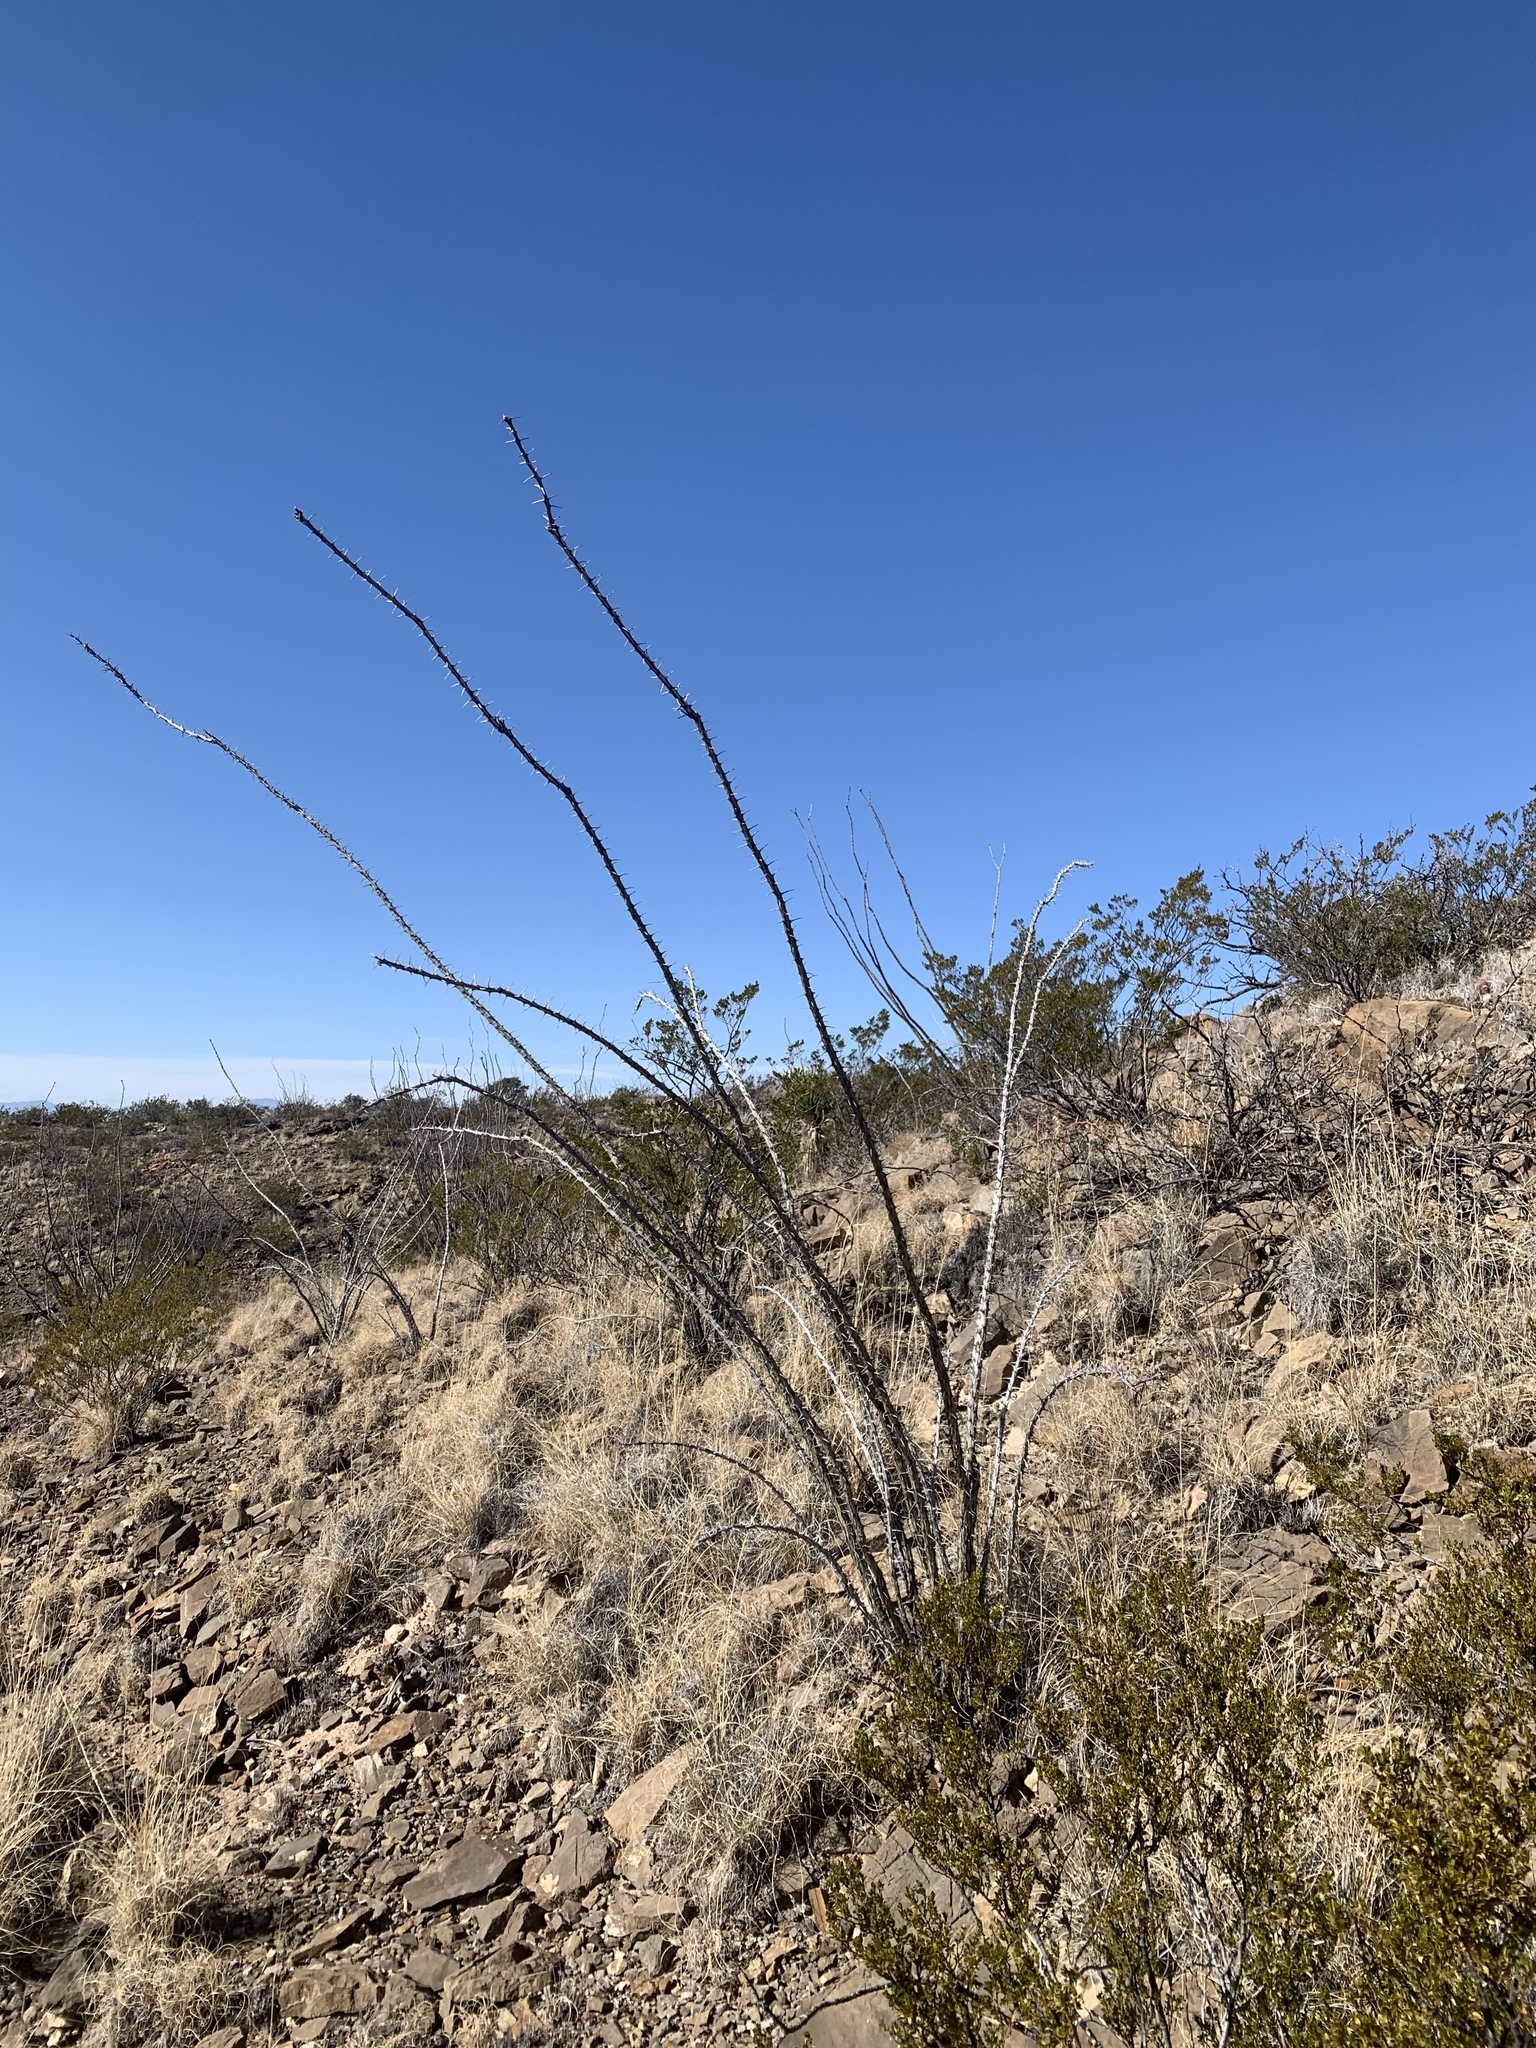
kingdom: Plantae
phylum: Tracheophyta
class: Magnoliopsida
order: Ericales
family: Fouquieriaceae
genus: Fouquieria
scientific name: Fouquieria splendens
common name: Vine-cactus
